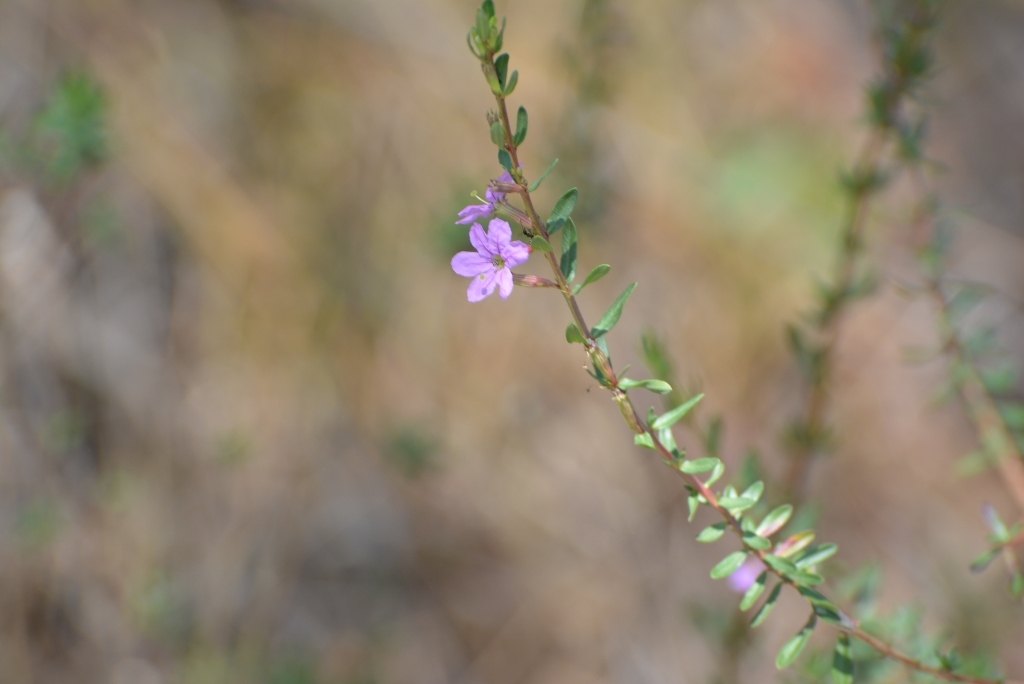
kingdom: Plantae
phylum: Tracheophyta
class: Magnoliopsida
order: Myrtales
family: Lythraceae
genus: Lythrum
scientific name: Lythrum gracile
